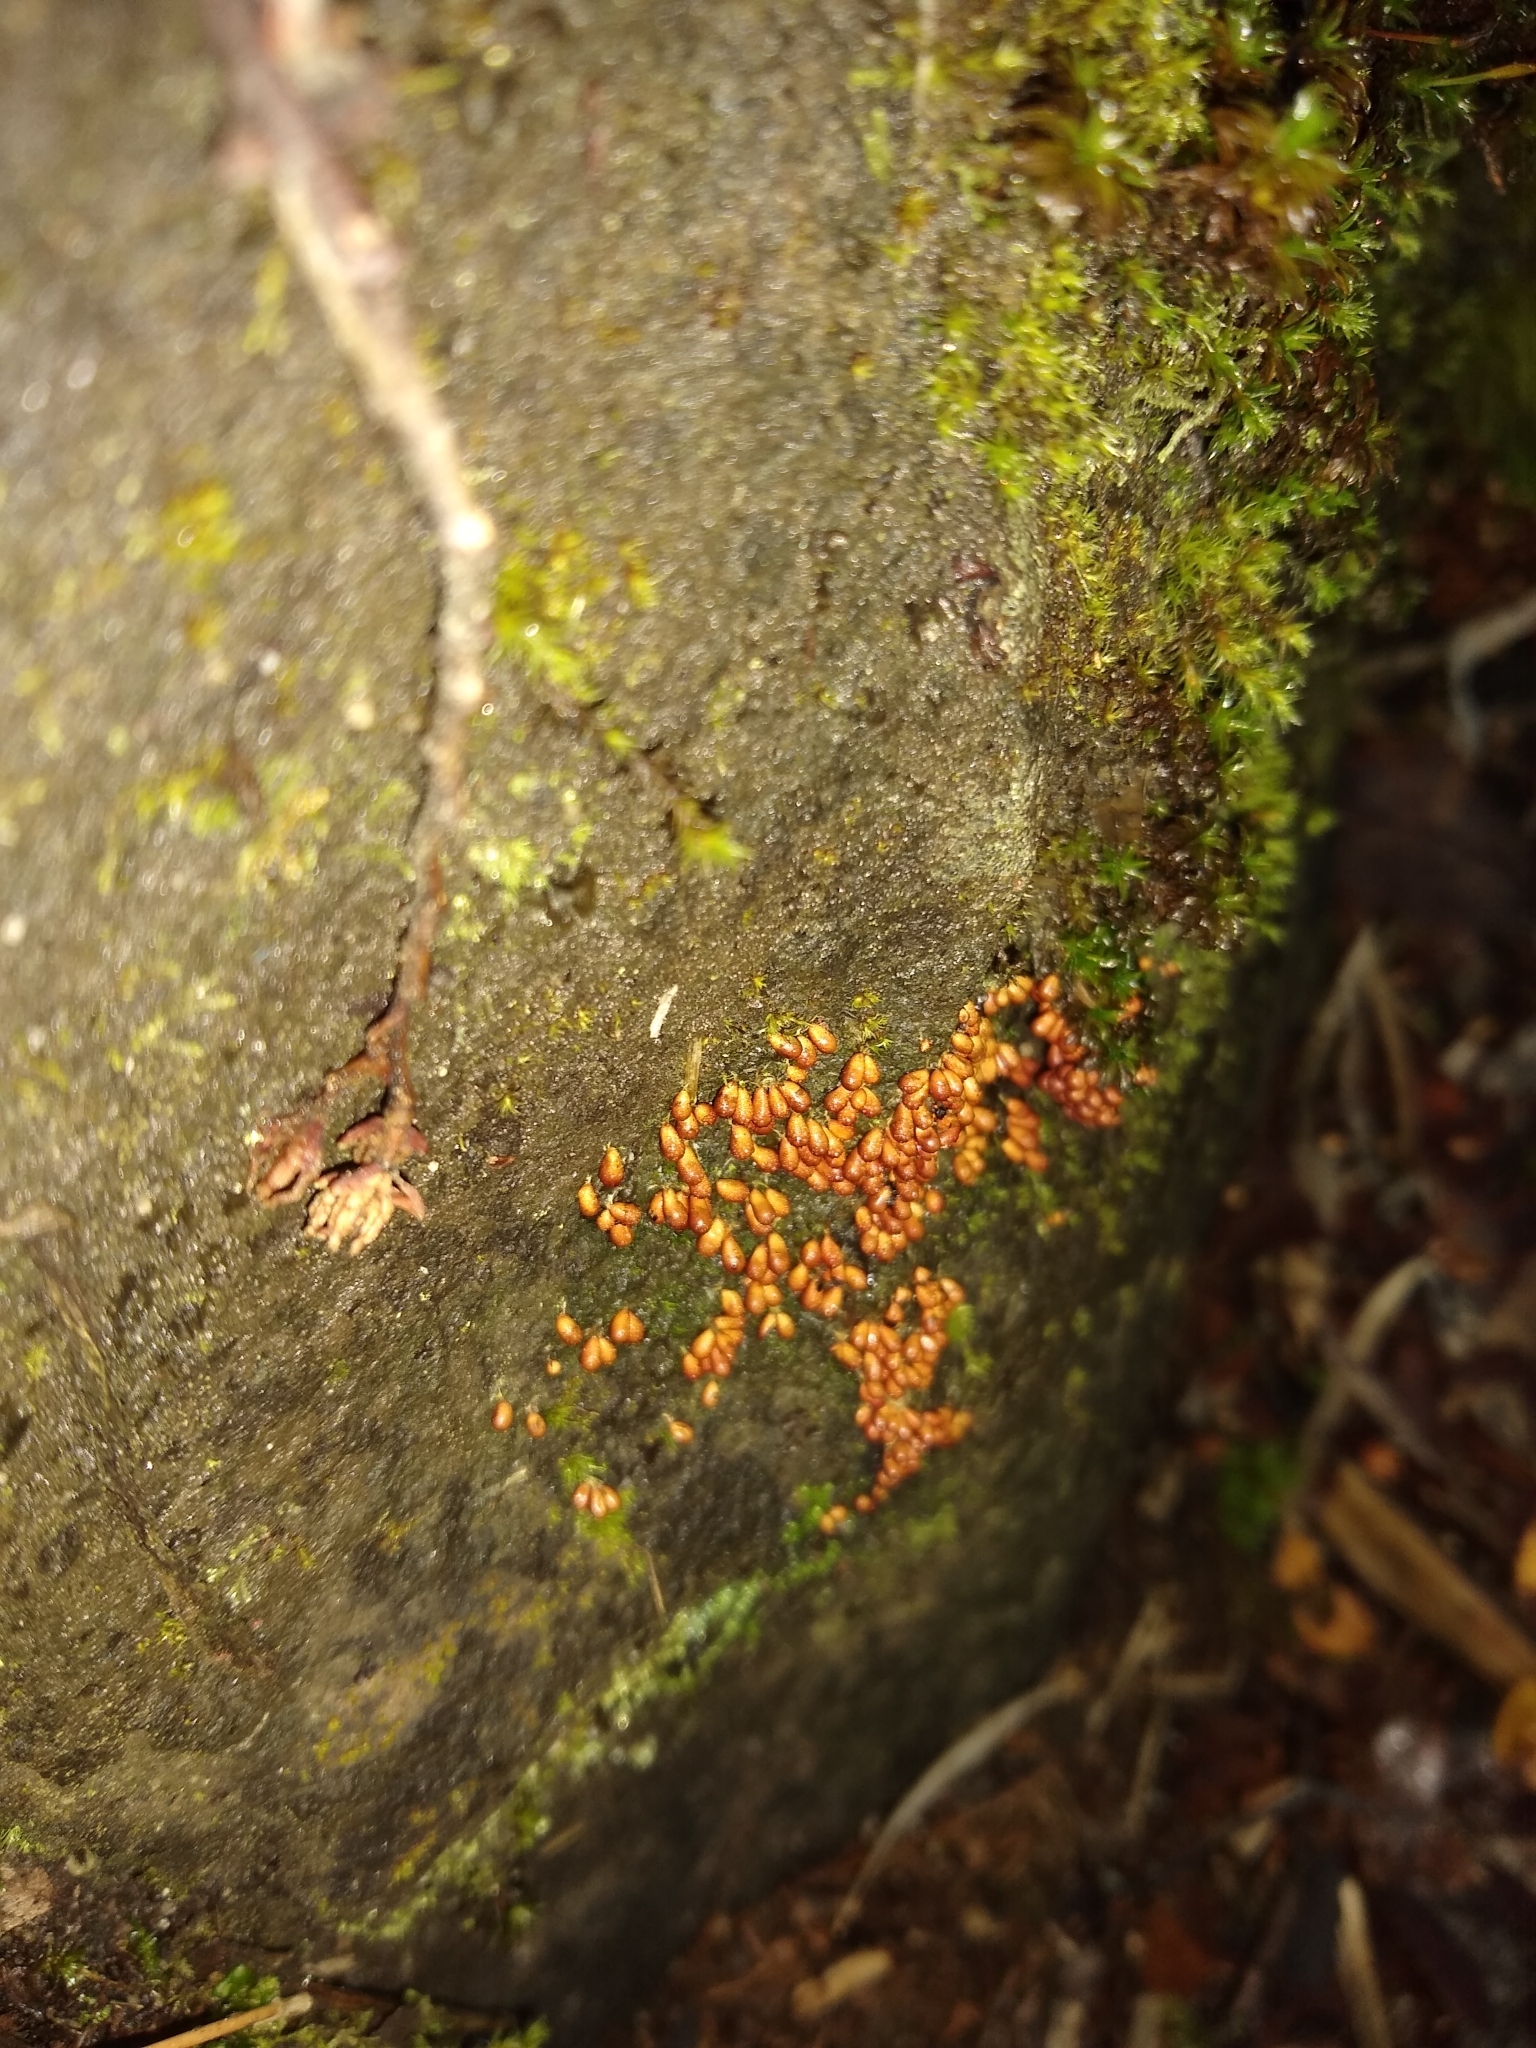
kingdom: Protozoa
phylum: Mycetozoa
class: Myxomycetes
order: Physarales
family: Physaraceae
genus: Leocarpus
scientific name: Leocarpus fragilis
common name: Insect-egg slime
